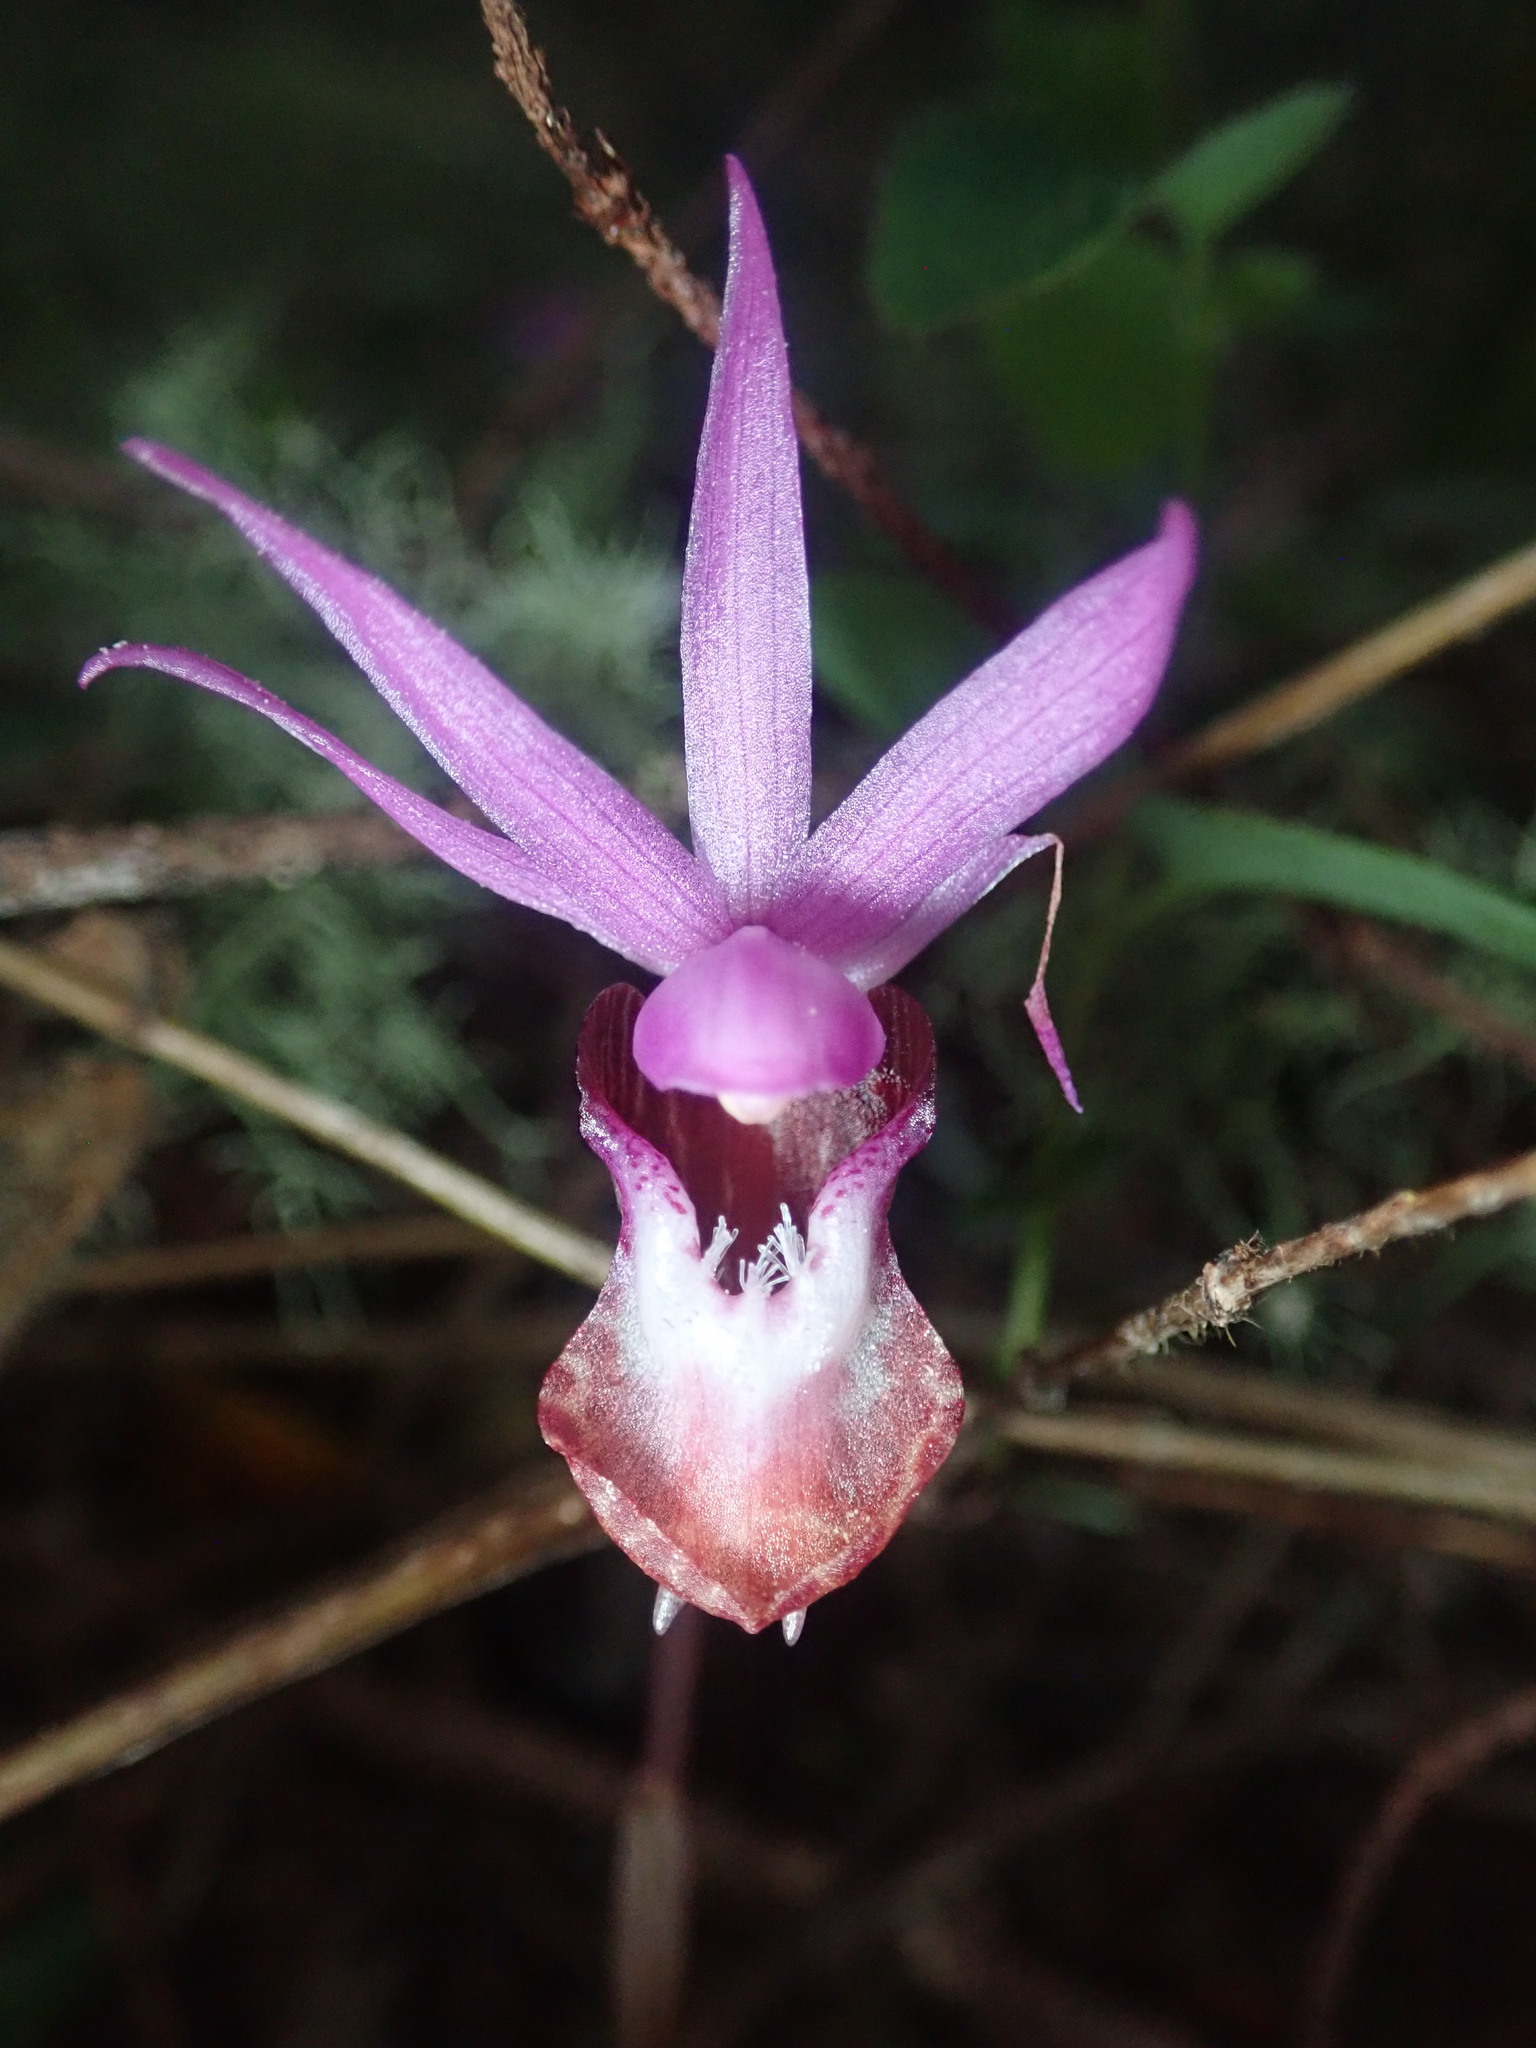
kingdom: Plantae
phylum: Tracheophyta
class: Liliopsida
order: Asparagales
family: Orchidaceae
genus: Calypso
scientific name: Calypso bulbosa
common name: Calypso
